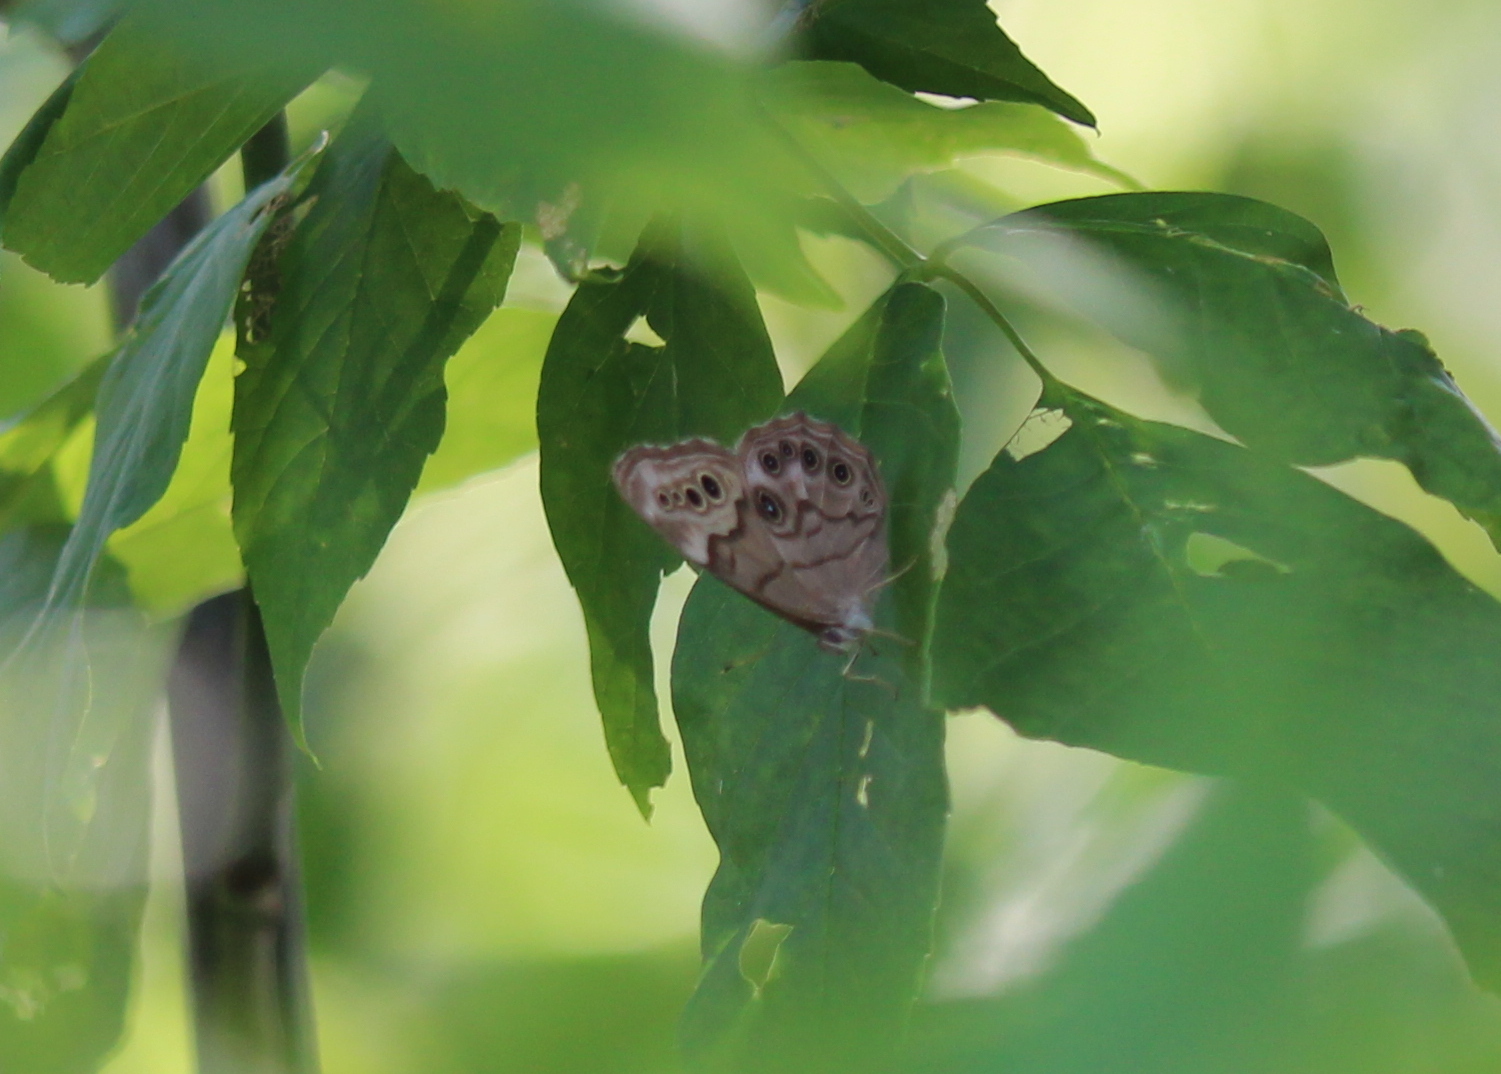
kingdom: Animalia
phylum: Arthropoda
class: Insecta
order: Lepidoptera
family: Nymphalidae
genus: Lethe
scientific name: Lethe anthedon
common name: Northern pearly-eye
